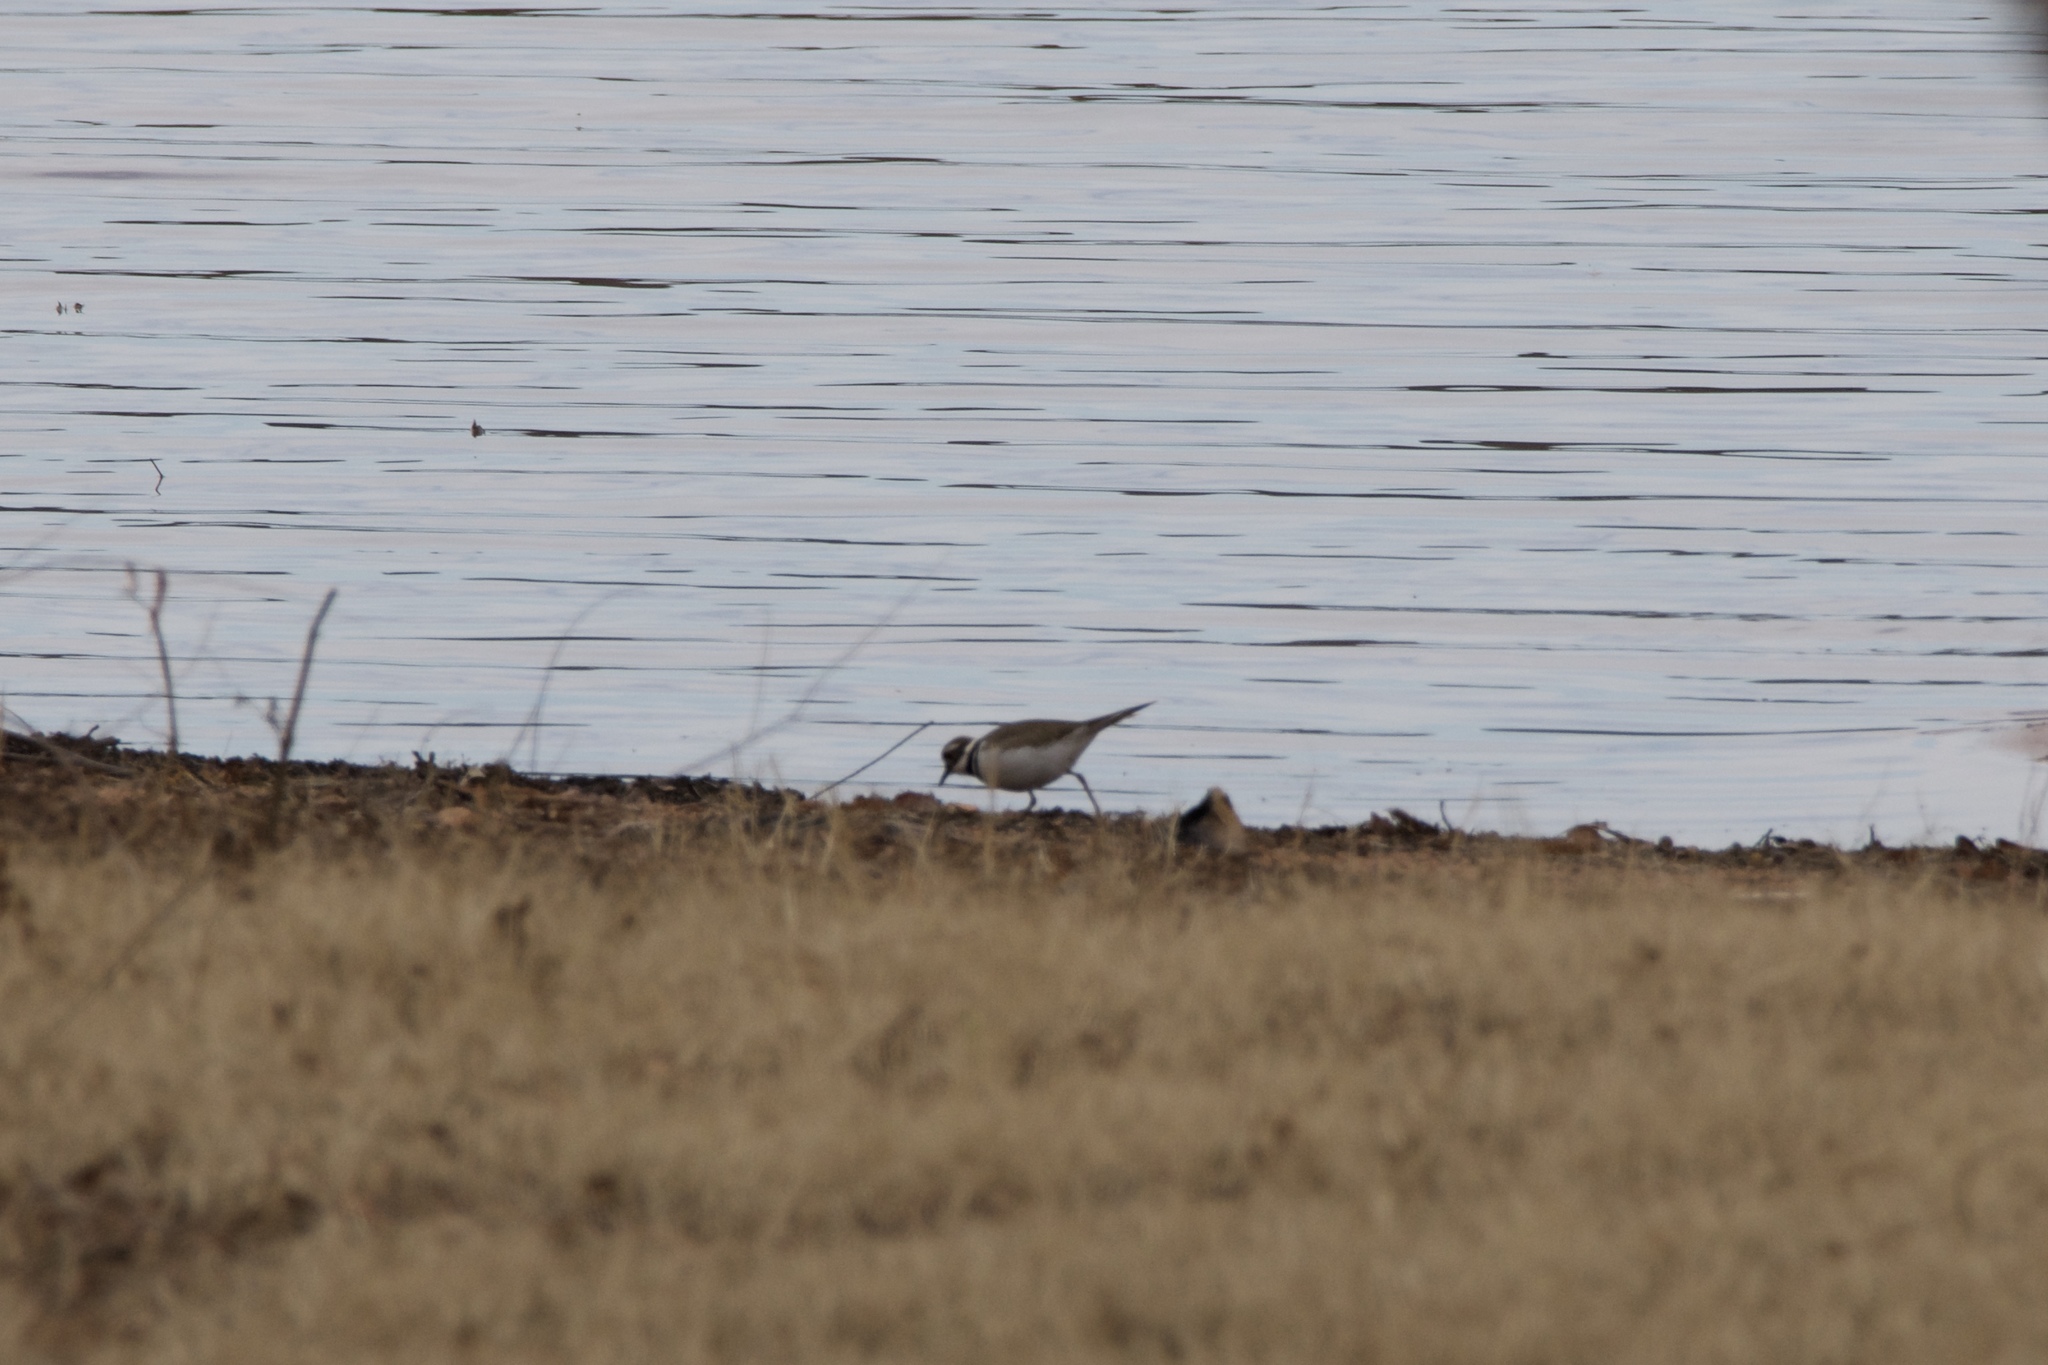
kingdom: Animalia
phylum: Chordata
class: Aves
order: Charadriiformes
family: Charadriidae
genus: Charadrius
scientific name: Charadrius vociferus
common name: Killdeer
